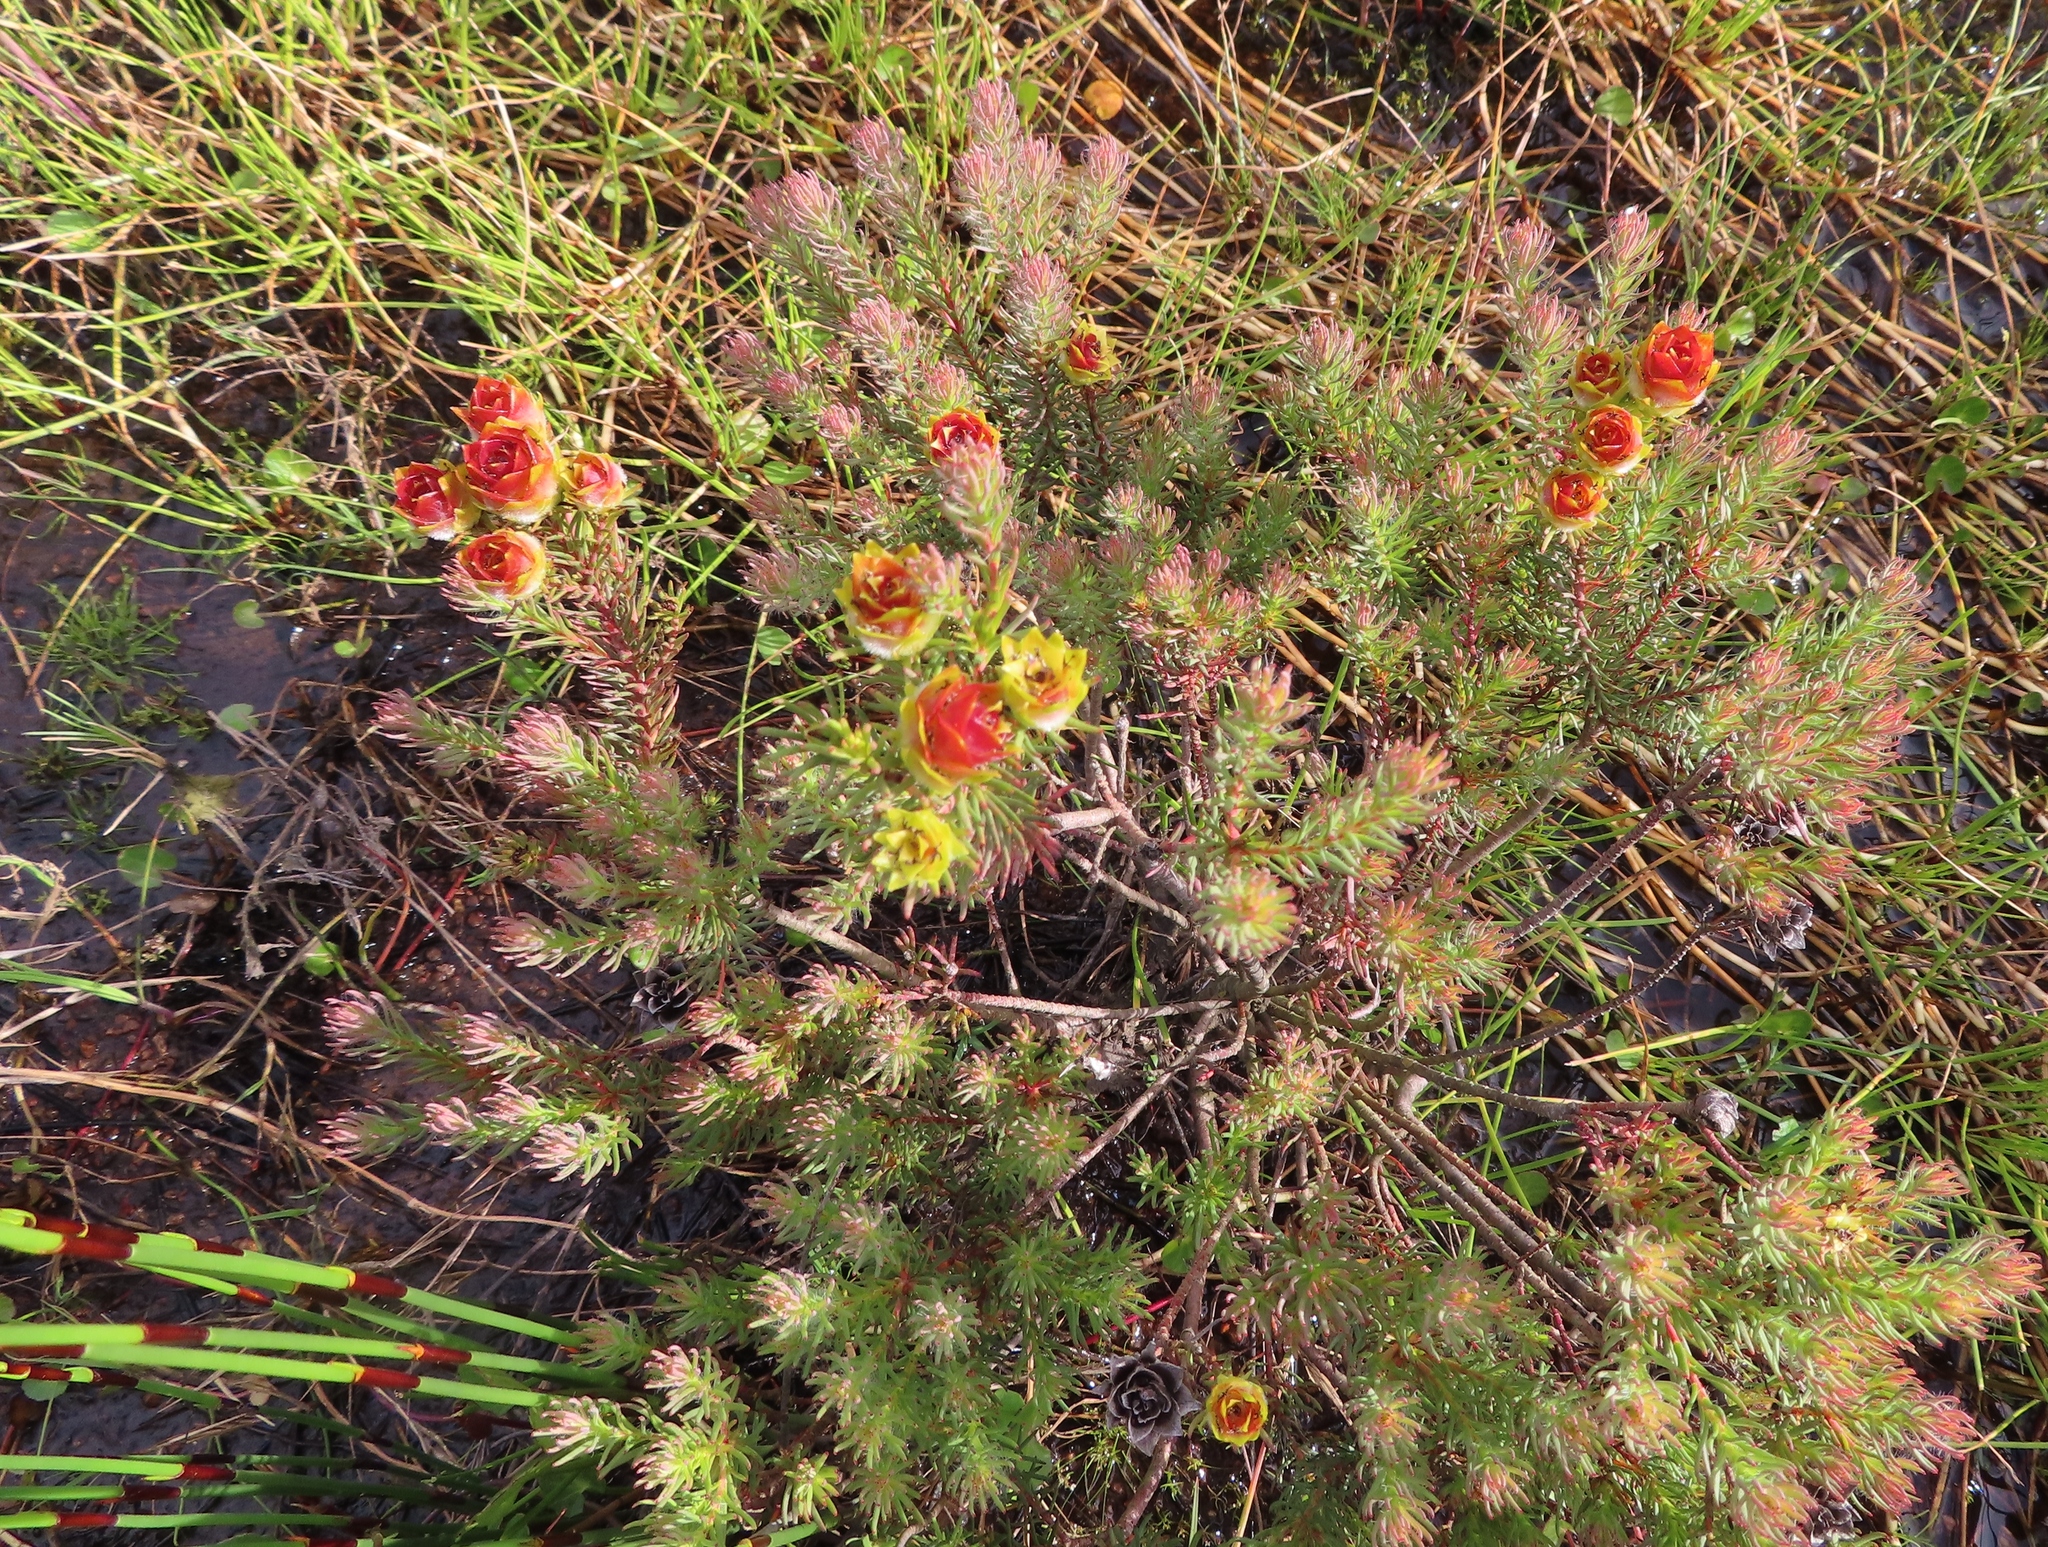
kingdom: Plantae
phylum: Tracheophyta
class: Magnoliopsida
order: Proteales
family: Proteaceae
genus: Leucadendron
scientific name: Leucadendron laxum
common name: Bredasdorp conebush
